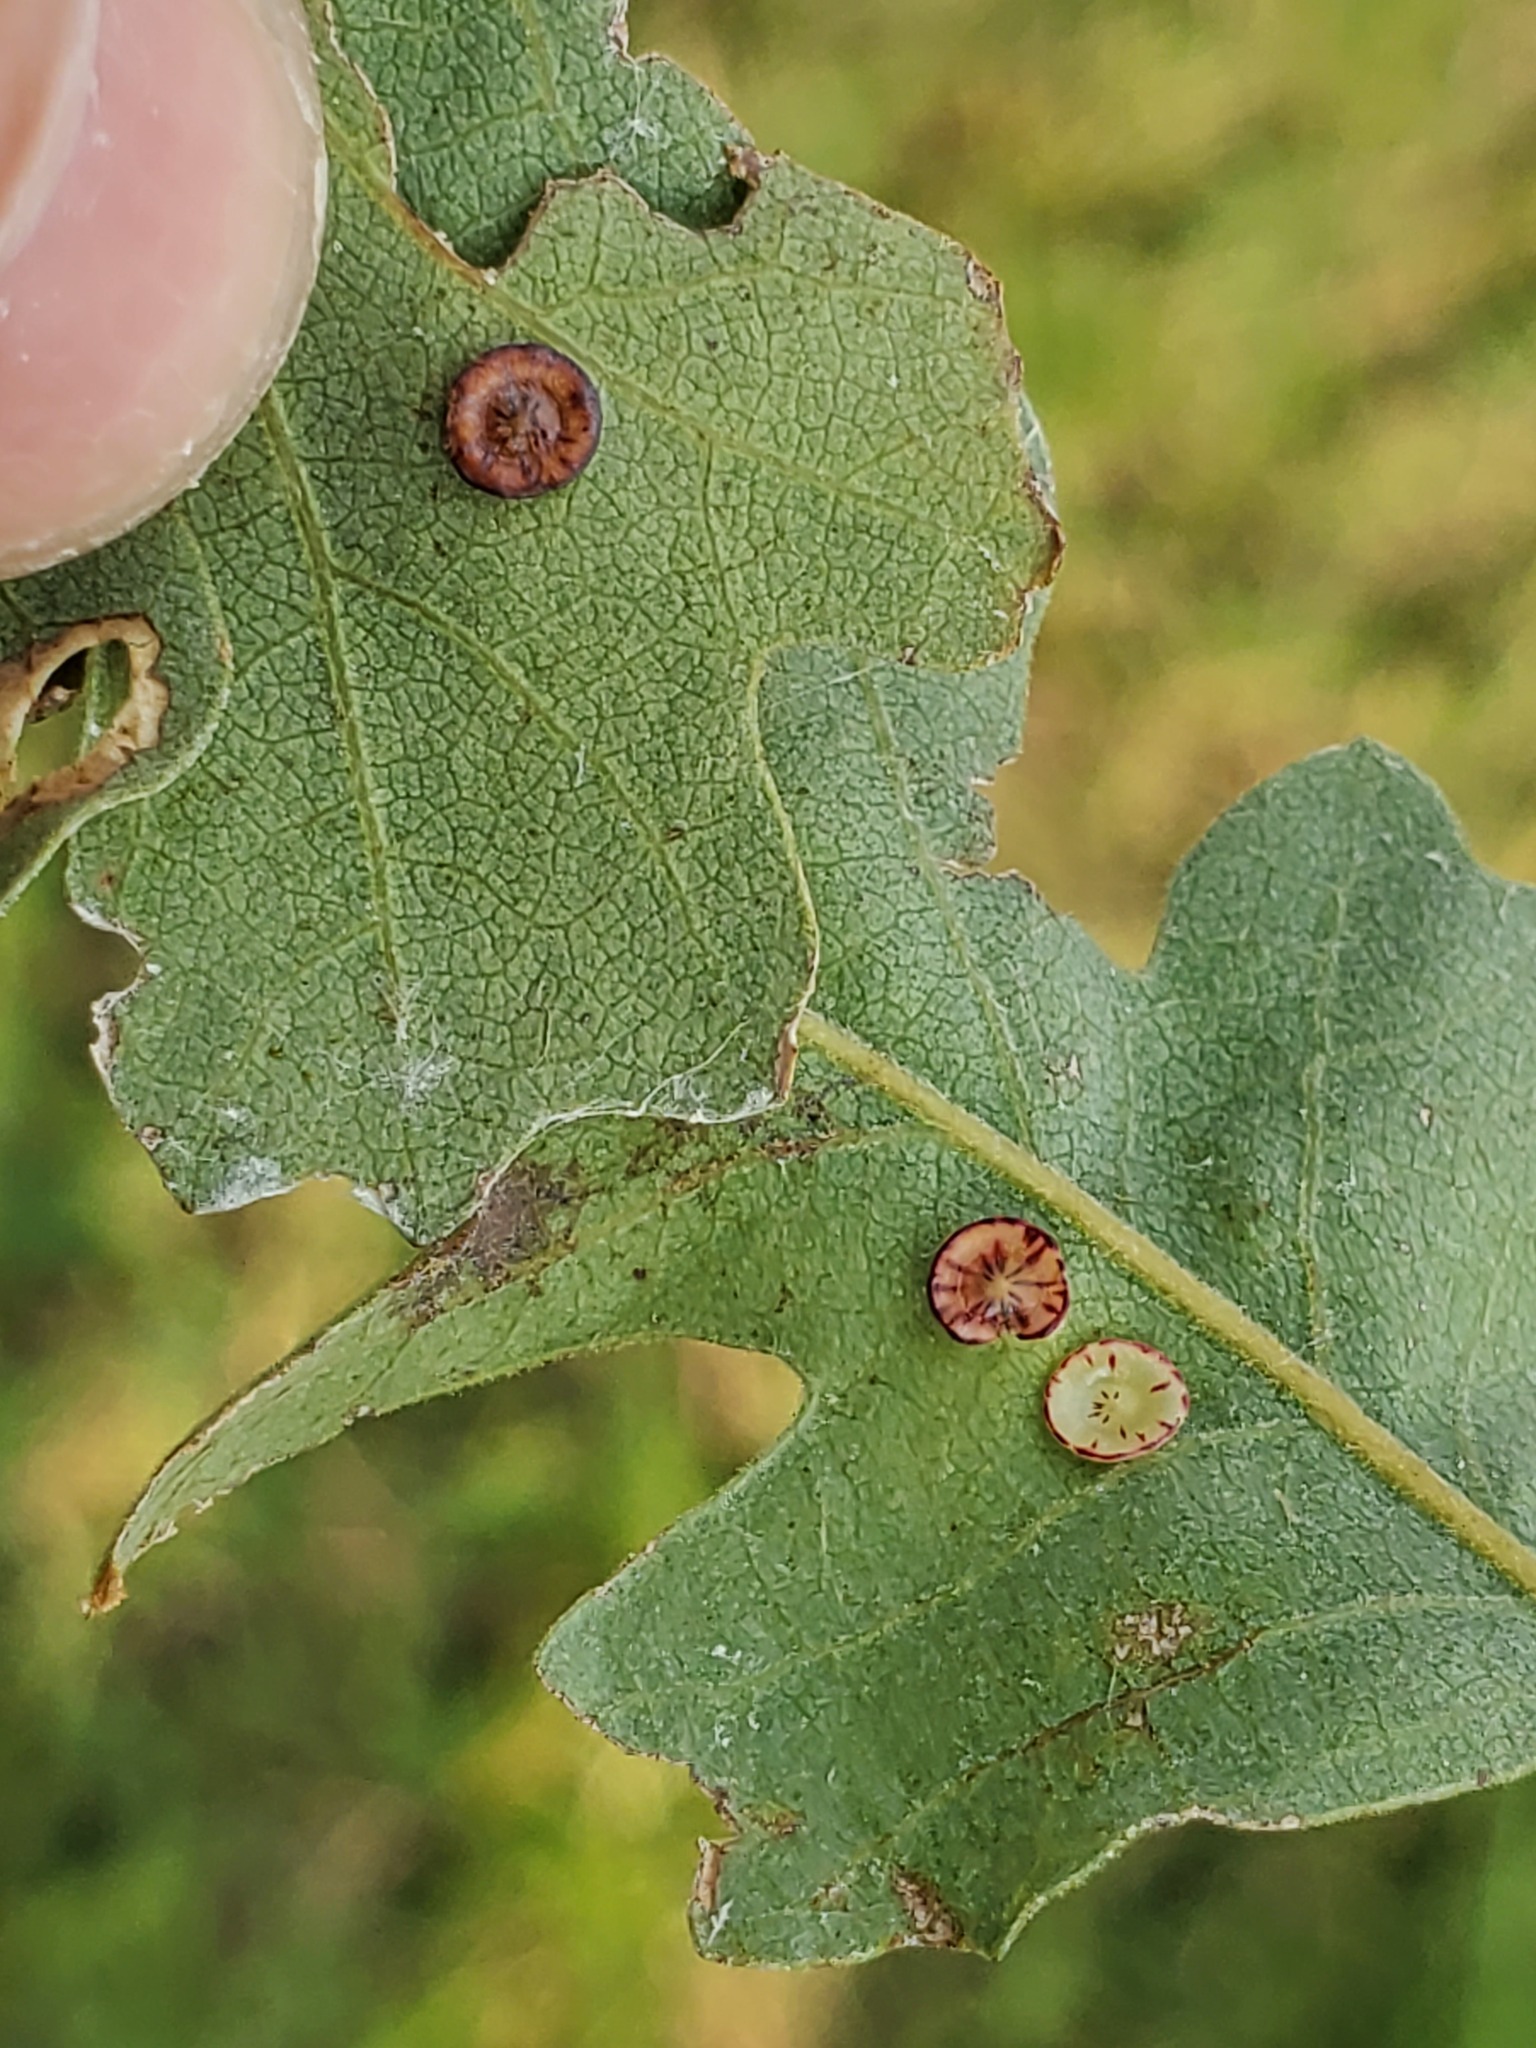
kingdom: Animalia
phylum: Arthropoda
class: Insecta
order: Hymenoptera
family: Cynipidae
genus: Andricus
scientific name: Andricus
